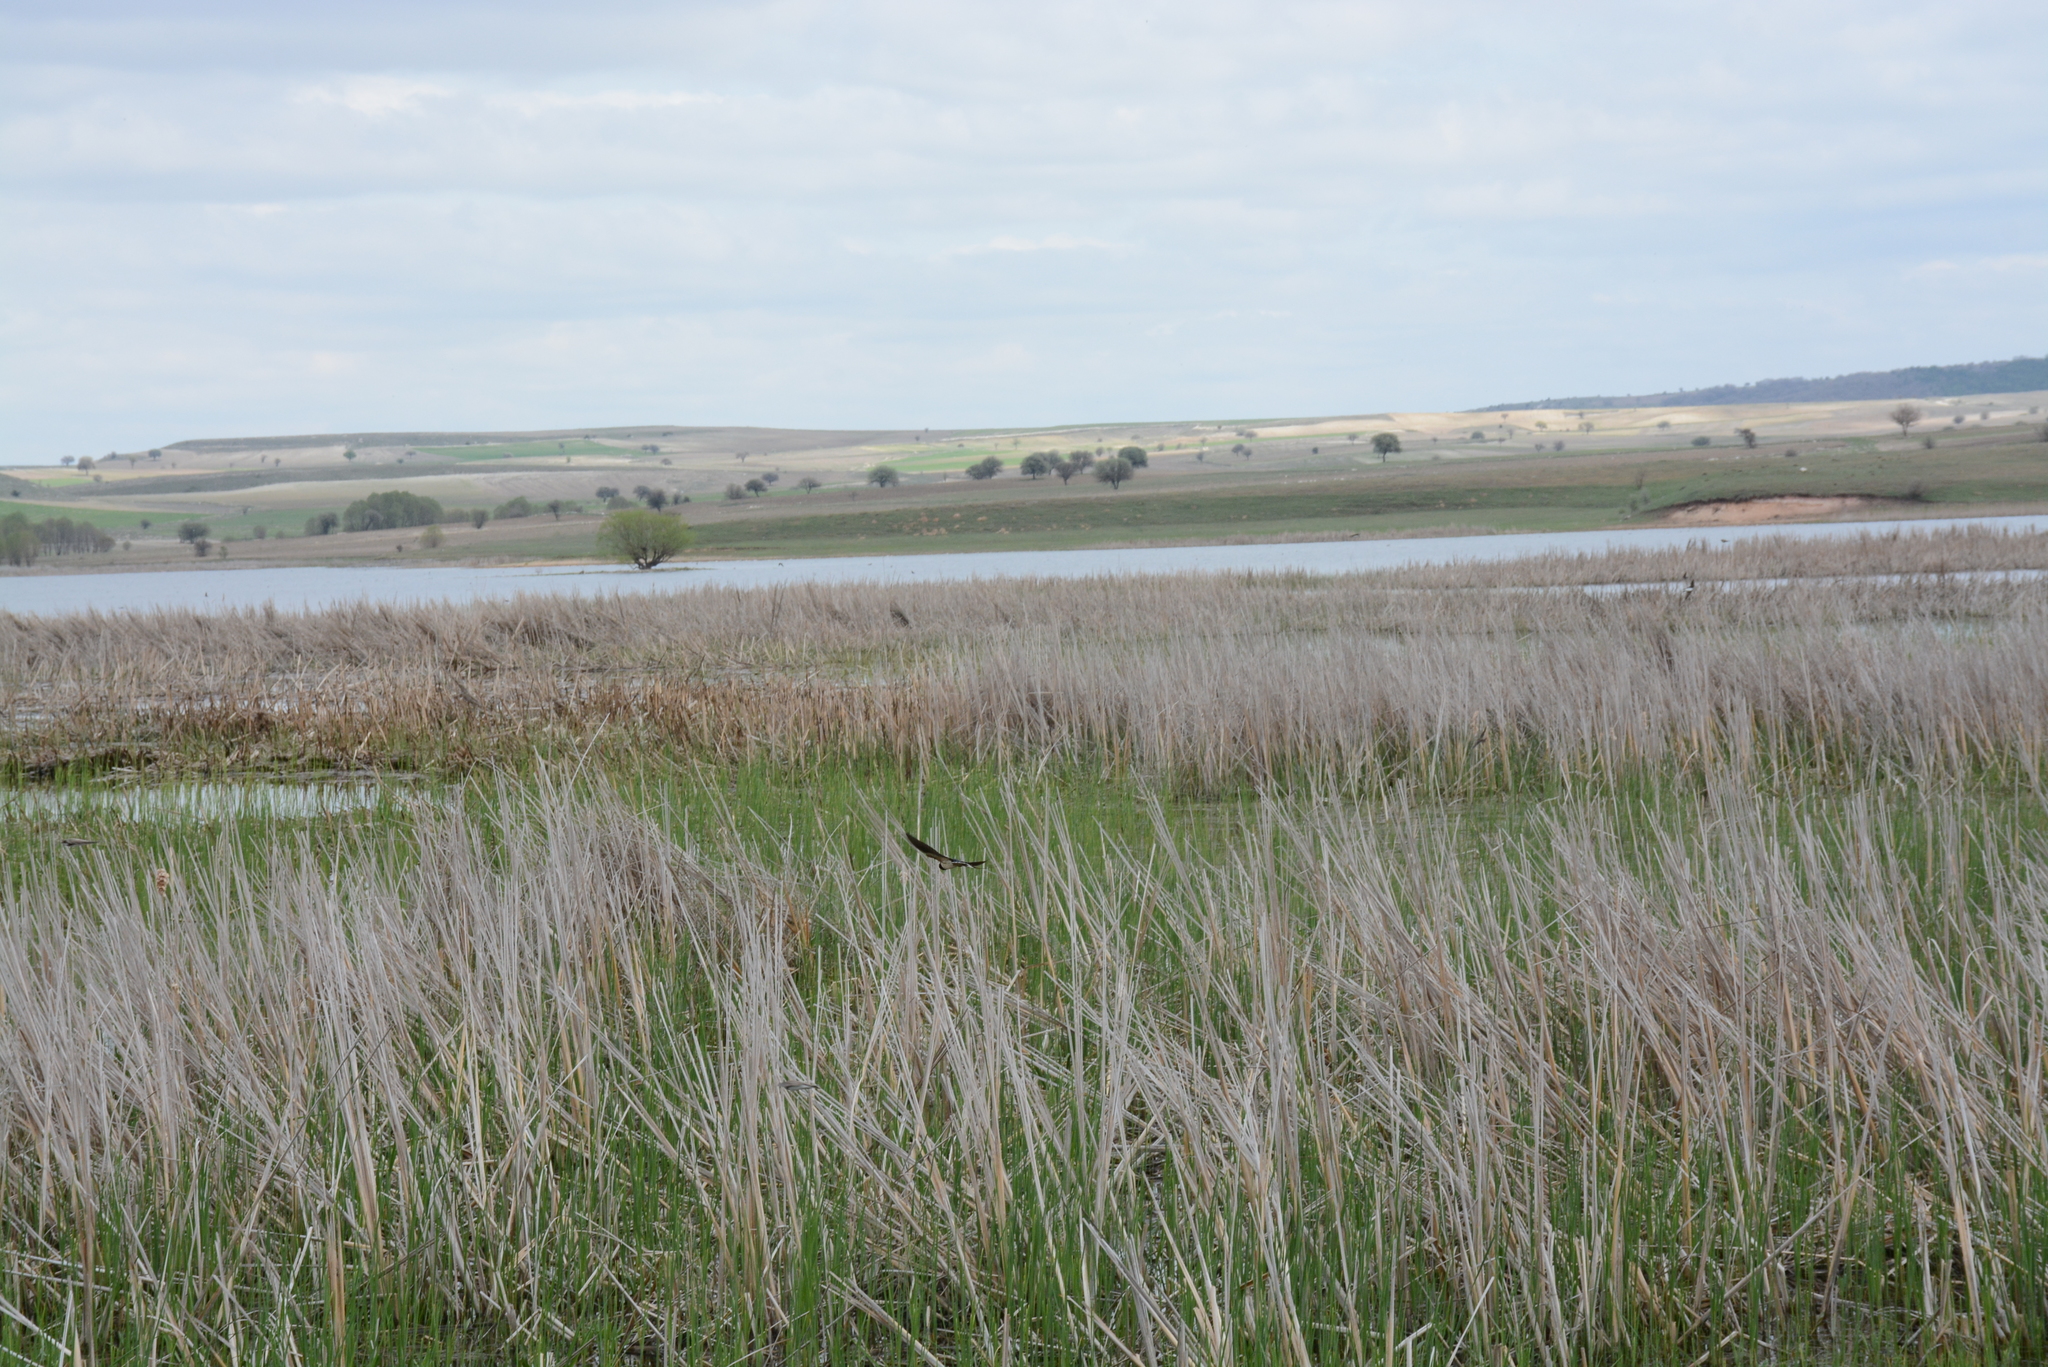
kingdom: Animalia
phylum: Chordata
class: Aves
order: Passeriformes
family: Hirundinidae
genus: Hirundo
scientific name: Hirundo rustica
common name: Barn swallow
